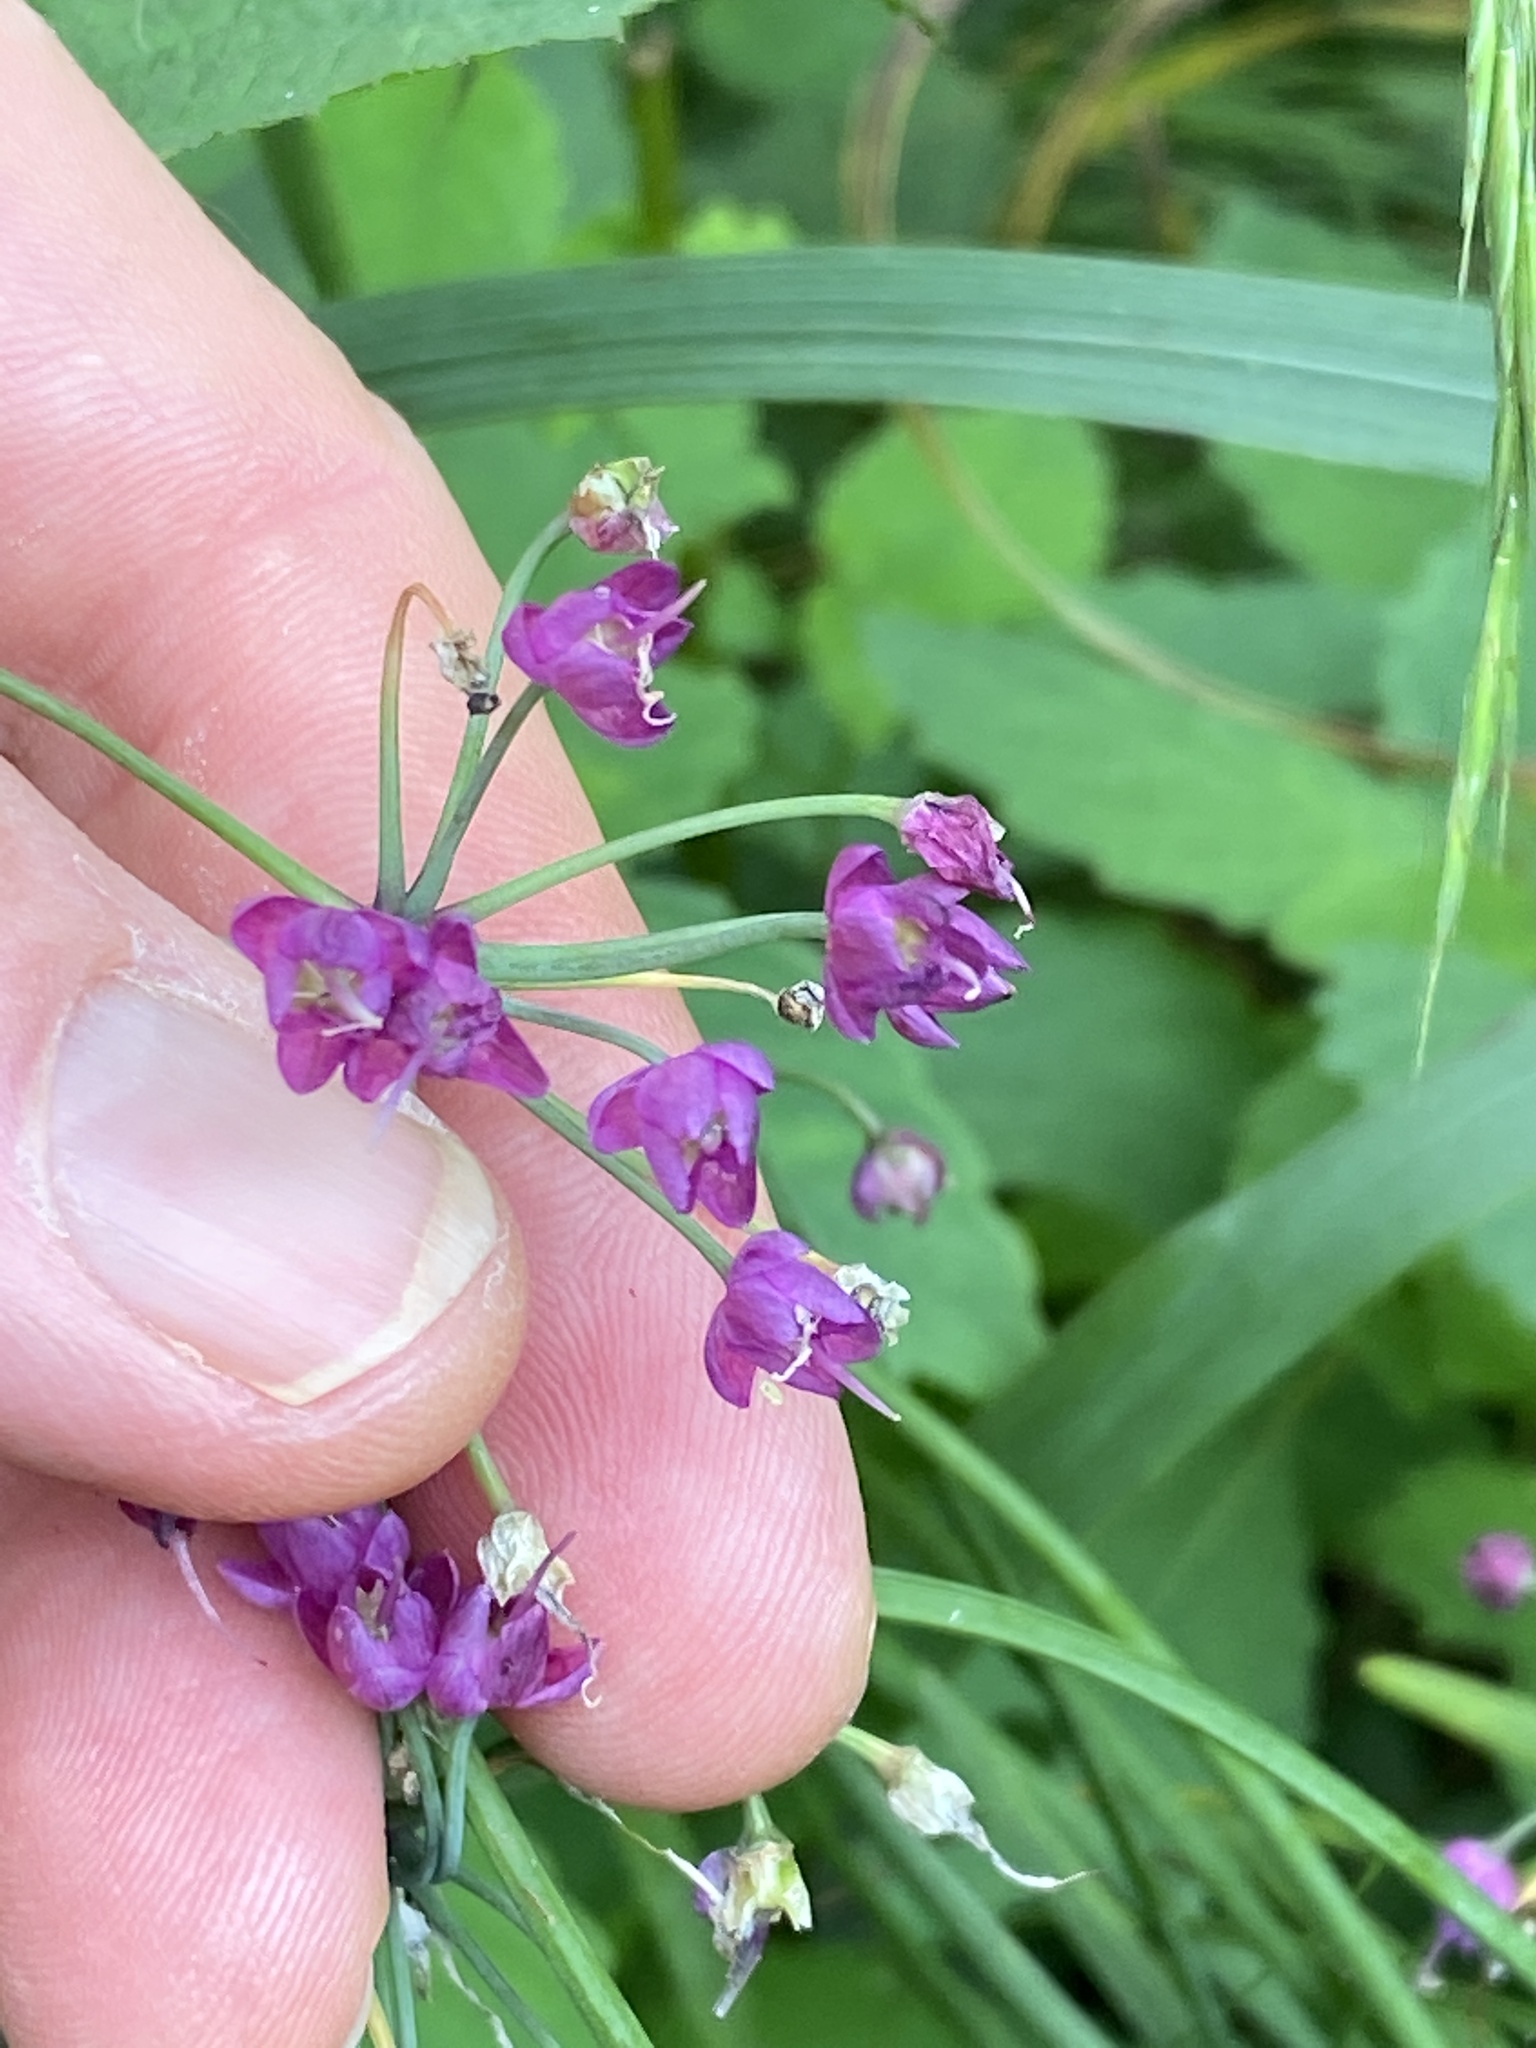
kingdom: Plantae
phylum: Tracheophyta
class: Liliopsida
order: Asparagales
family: Amaryllidaceae
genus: Allium
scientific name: Allium cernuum
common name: Nodding onion
